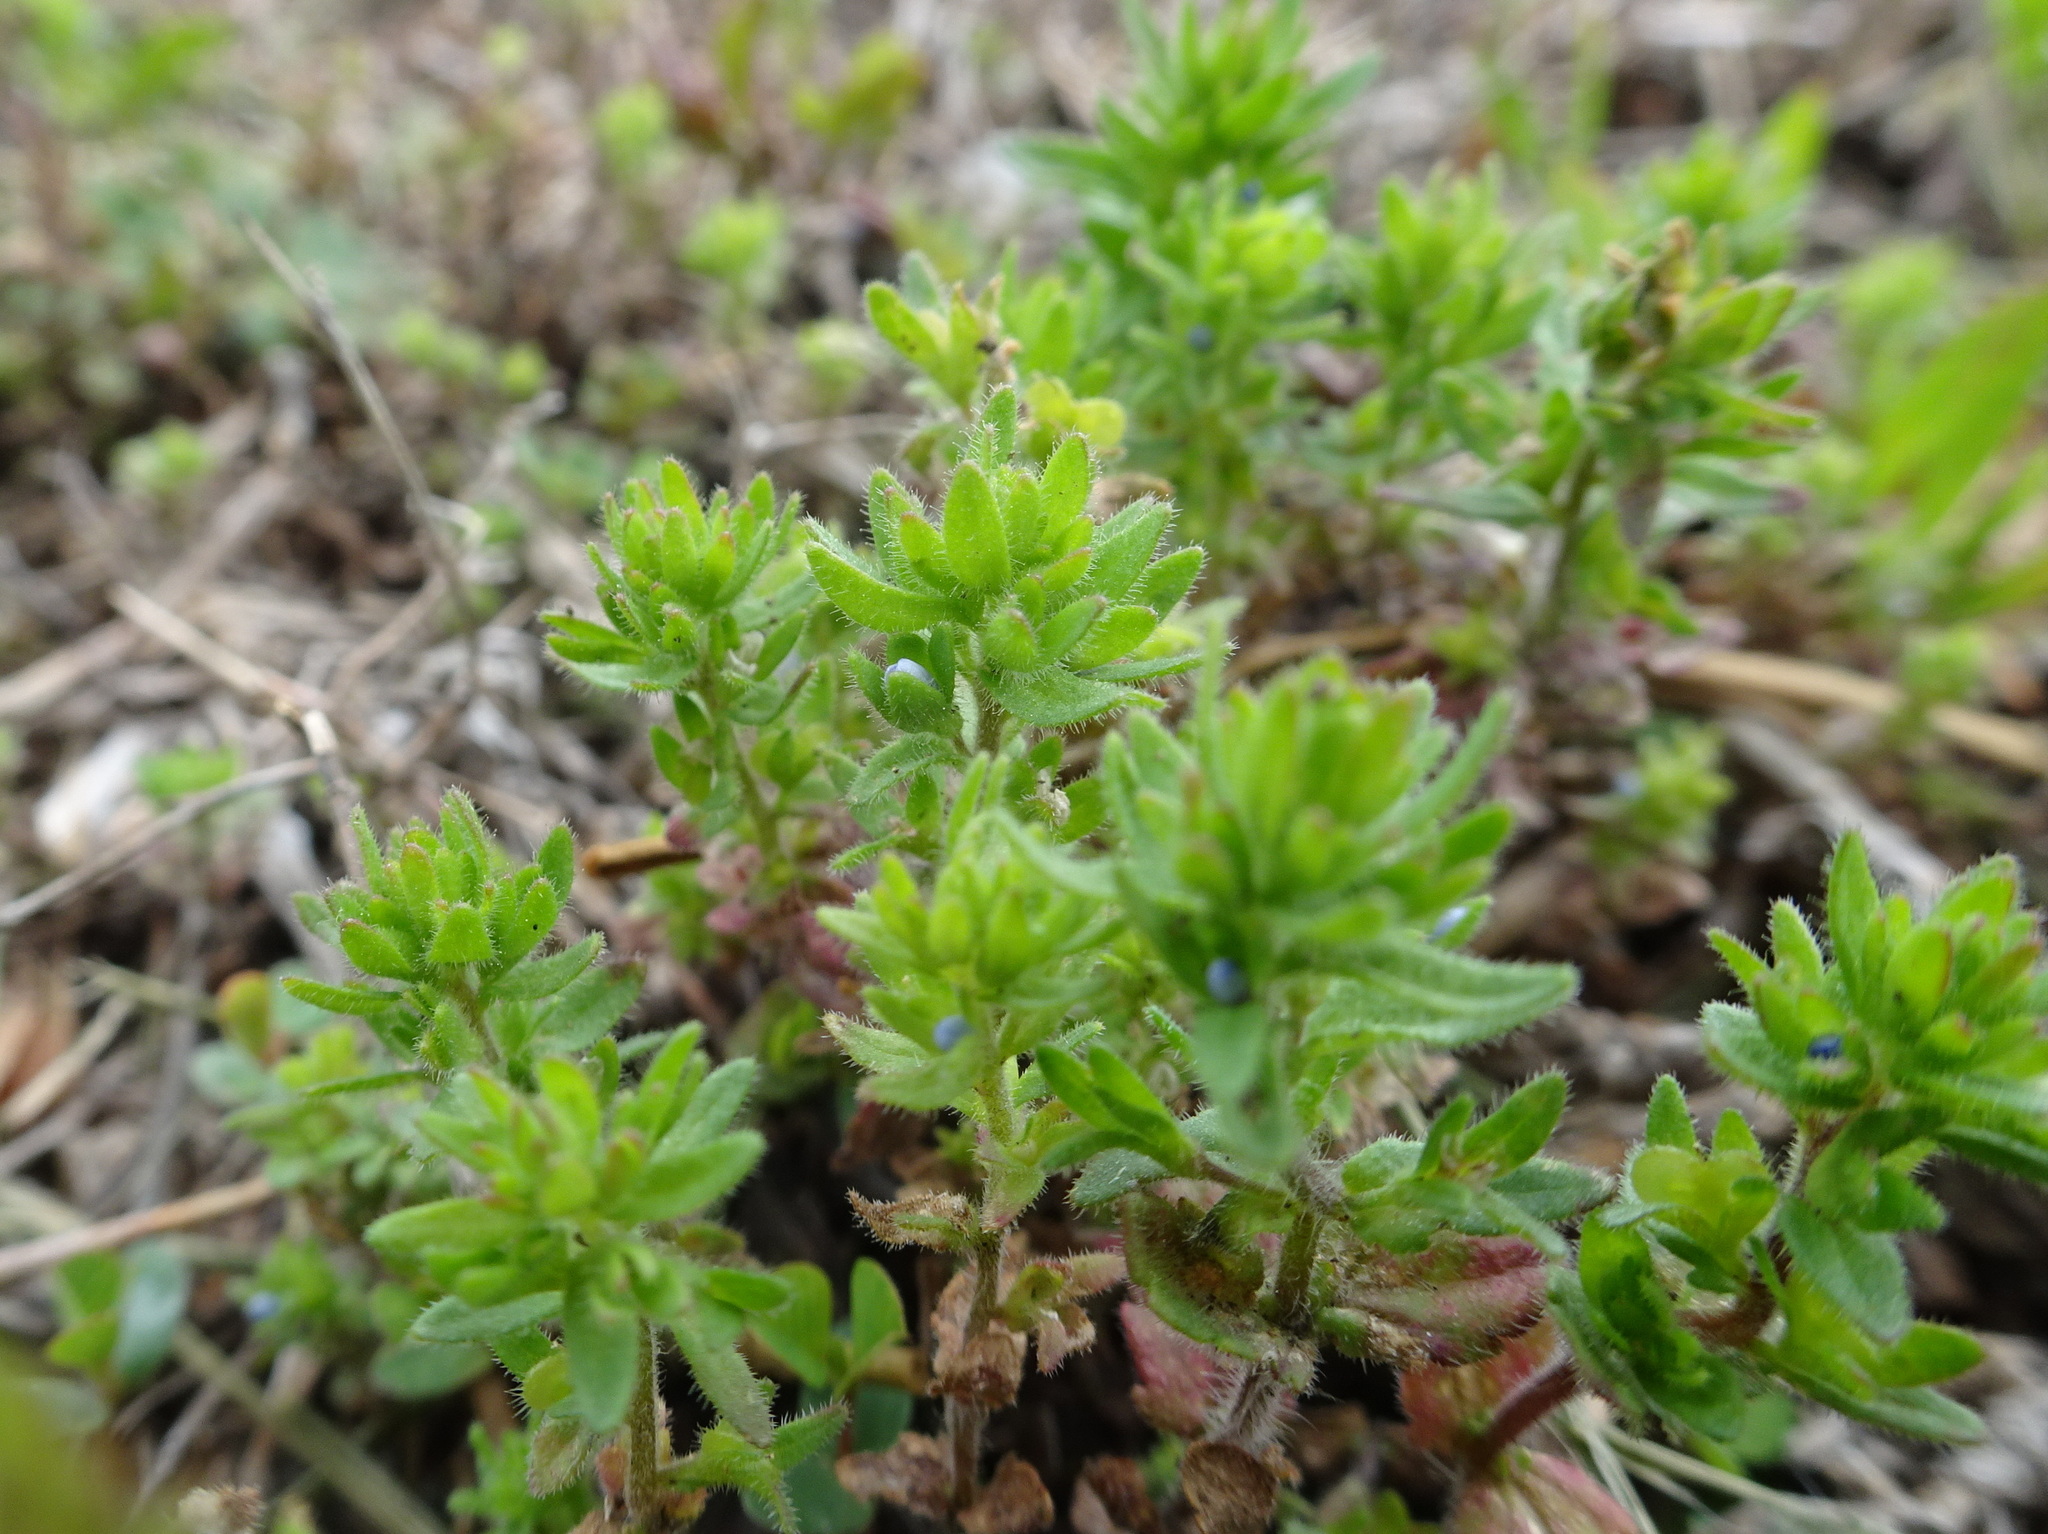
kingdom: Plantae
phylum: Tracheophyta
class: Magnoliopsida
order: Lamiales
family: Plantaginaceae
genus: Veronica
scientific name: Veronica arvensis
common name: Corn speedwell
